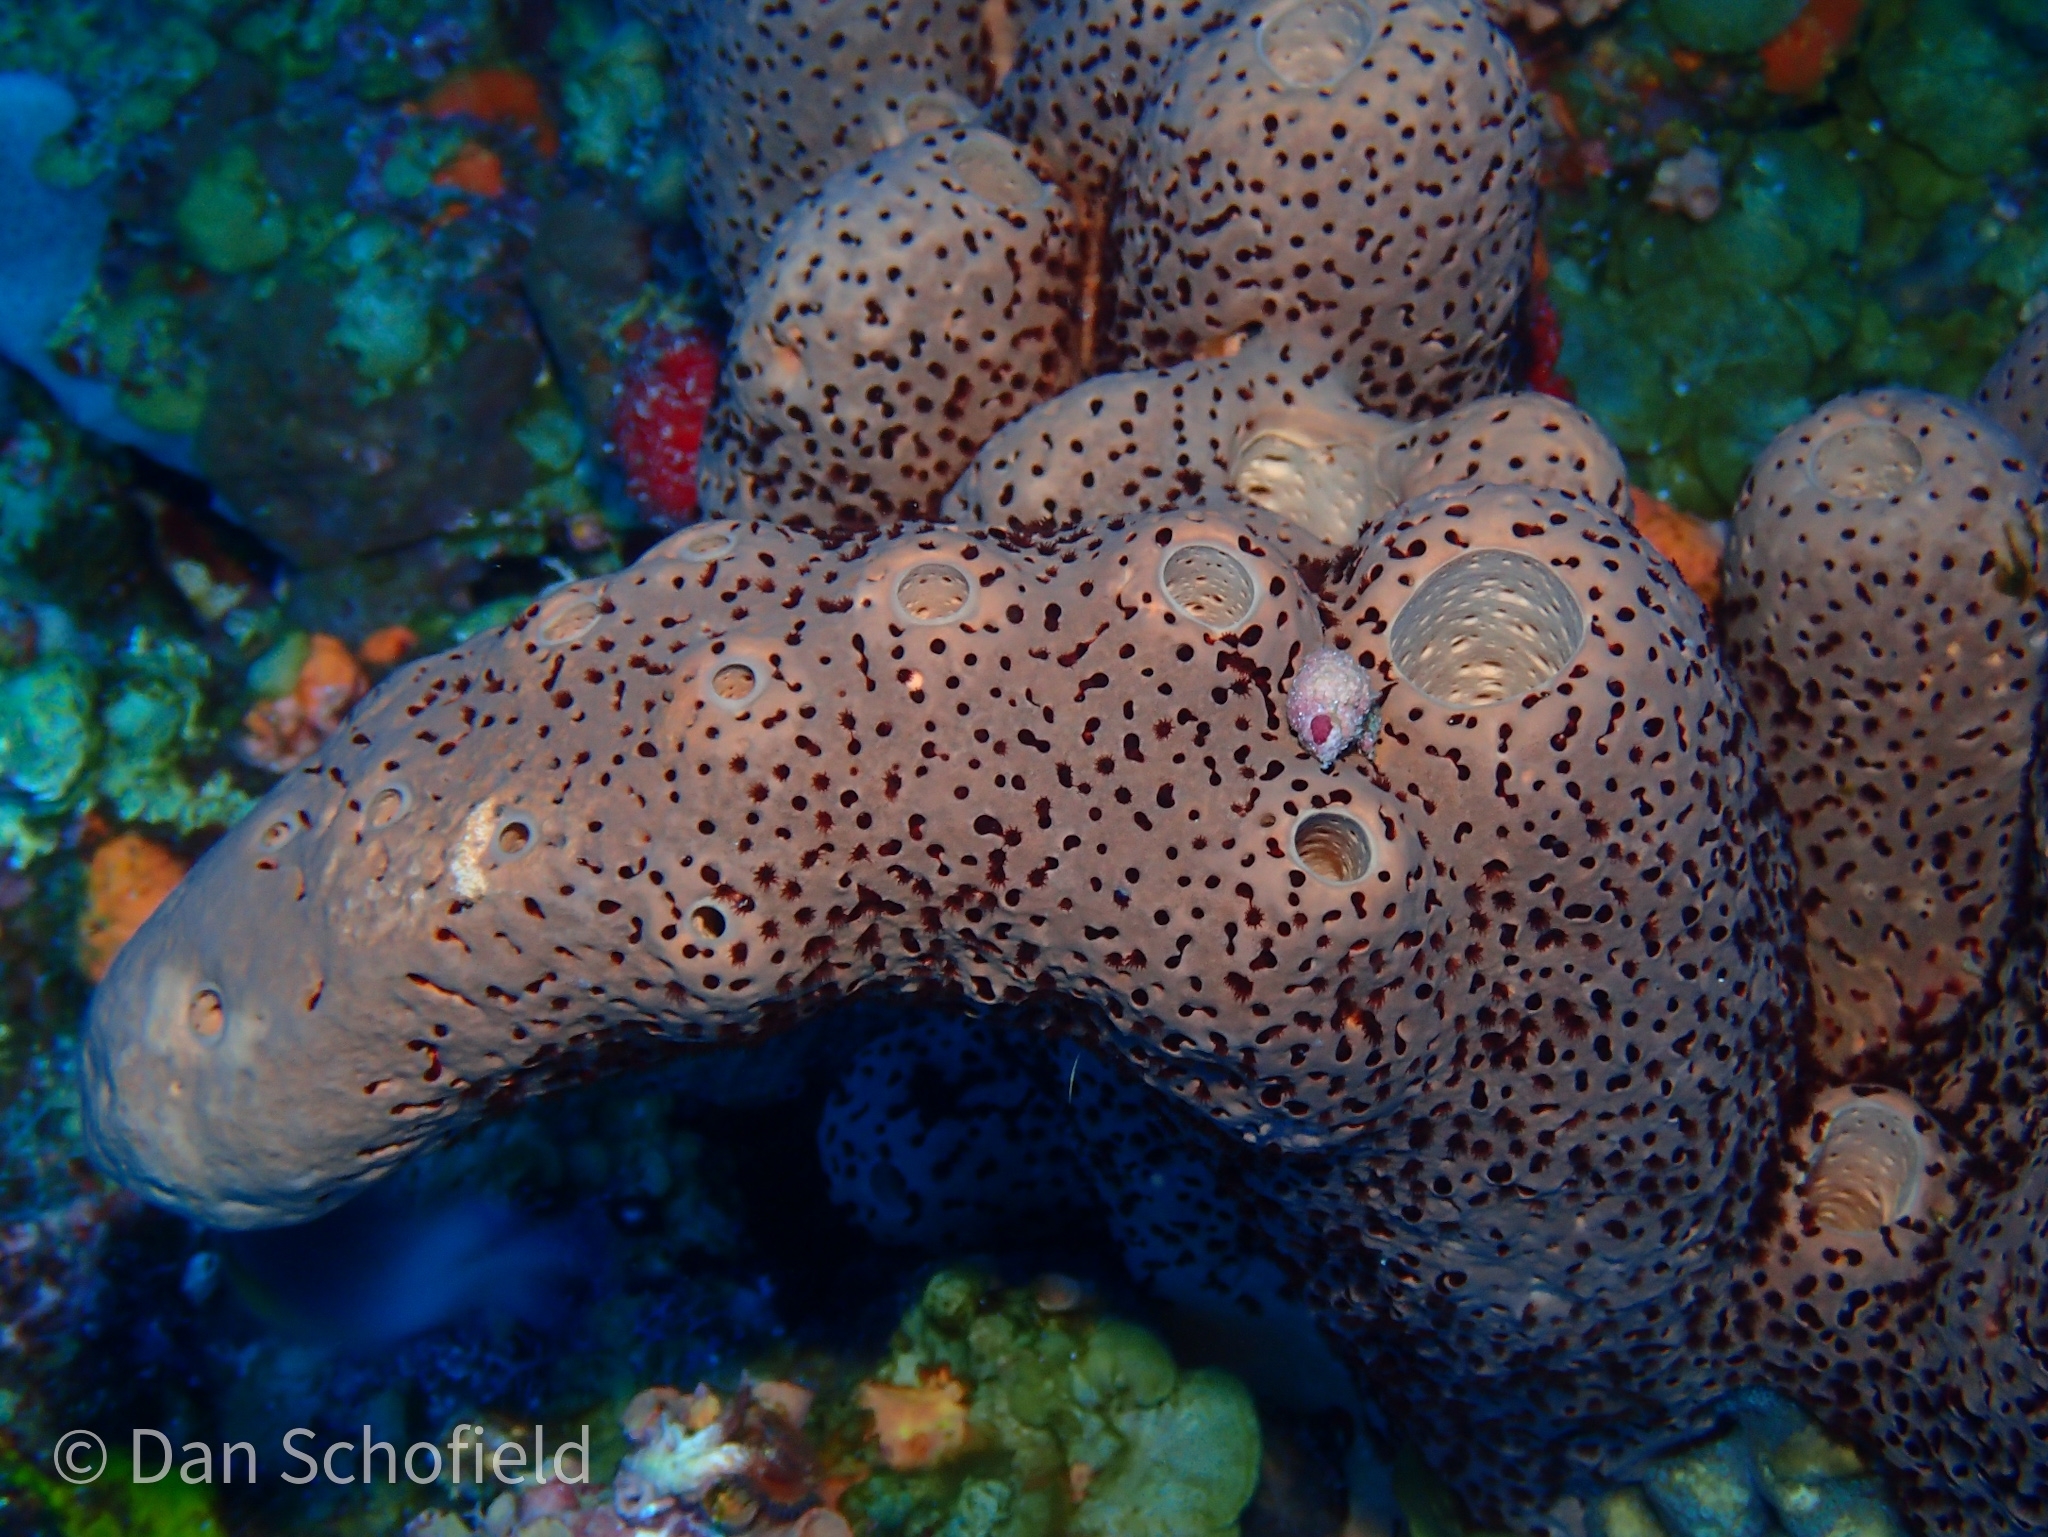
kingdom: Animalia
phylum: Porifera
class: Demospongiae
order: Agelasida
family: Agelasidae
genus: Agelas
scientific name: Agelas conifera
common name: Brown tube sponge
